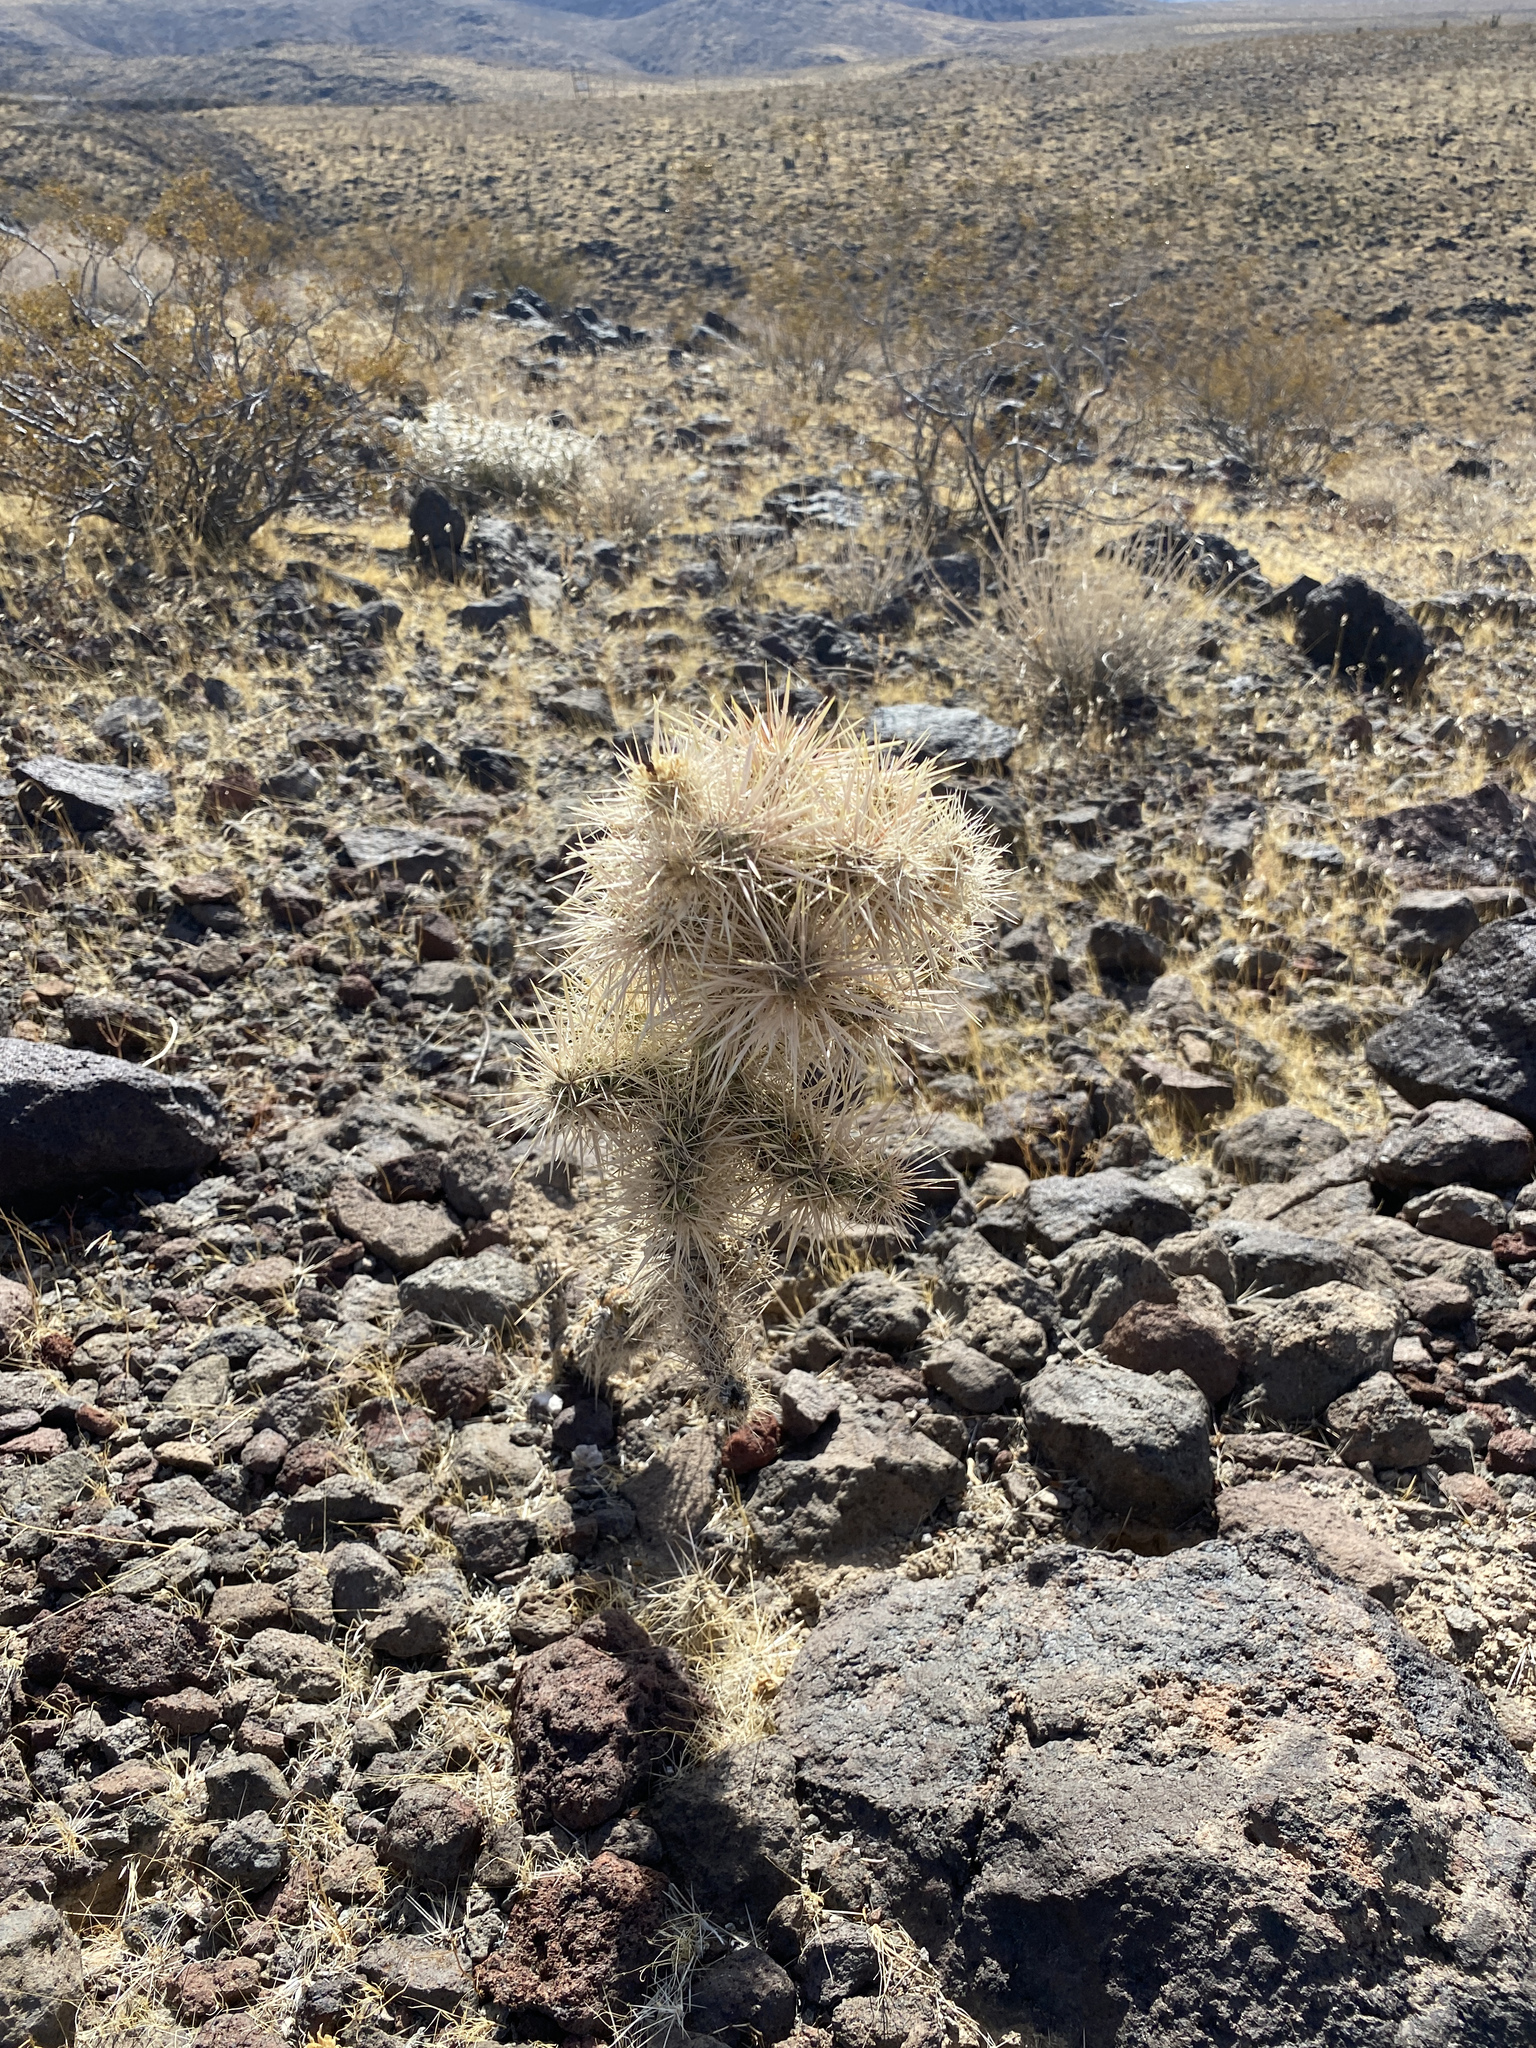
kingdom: Plantae
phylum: Tracheophyta
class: Magnoliopsida
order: Caryophyllales
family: Cactaceae
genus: Cylindropuntia
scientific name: Cylindropuntia echinocarpa
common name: Ground cholla
